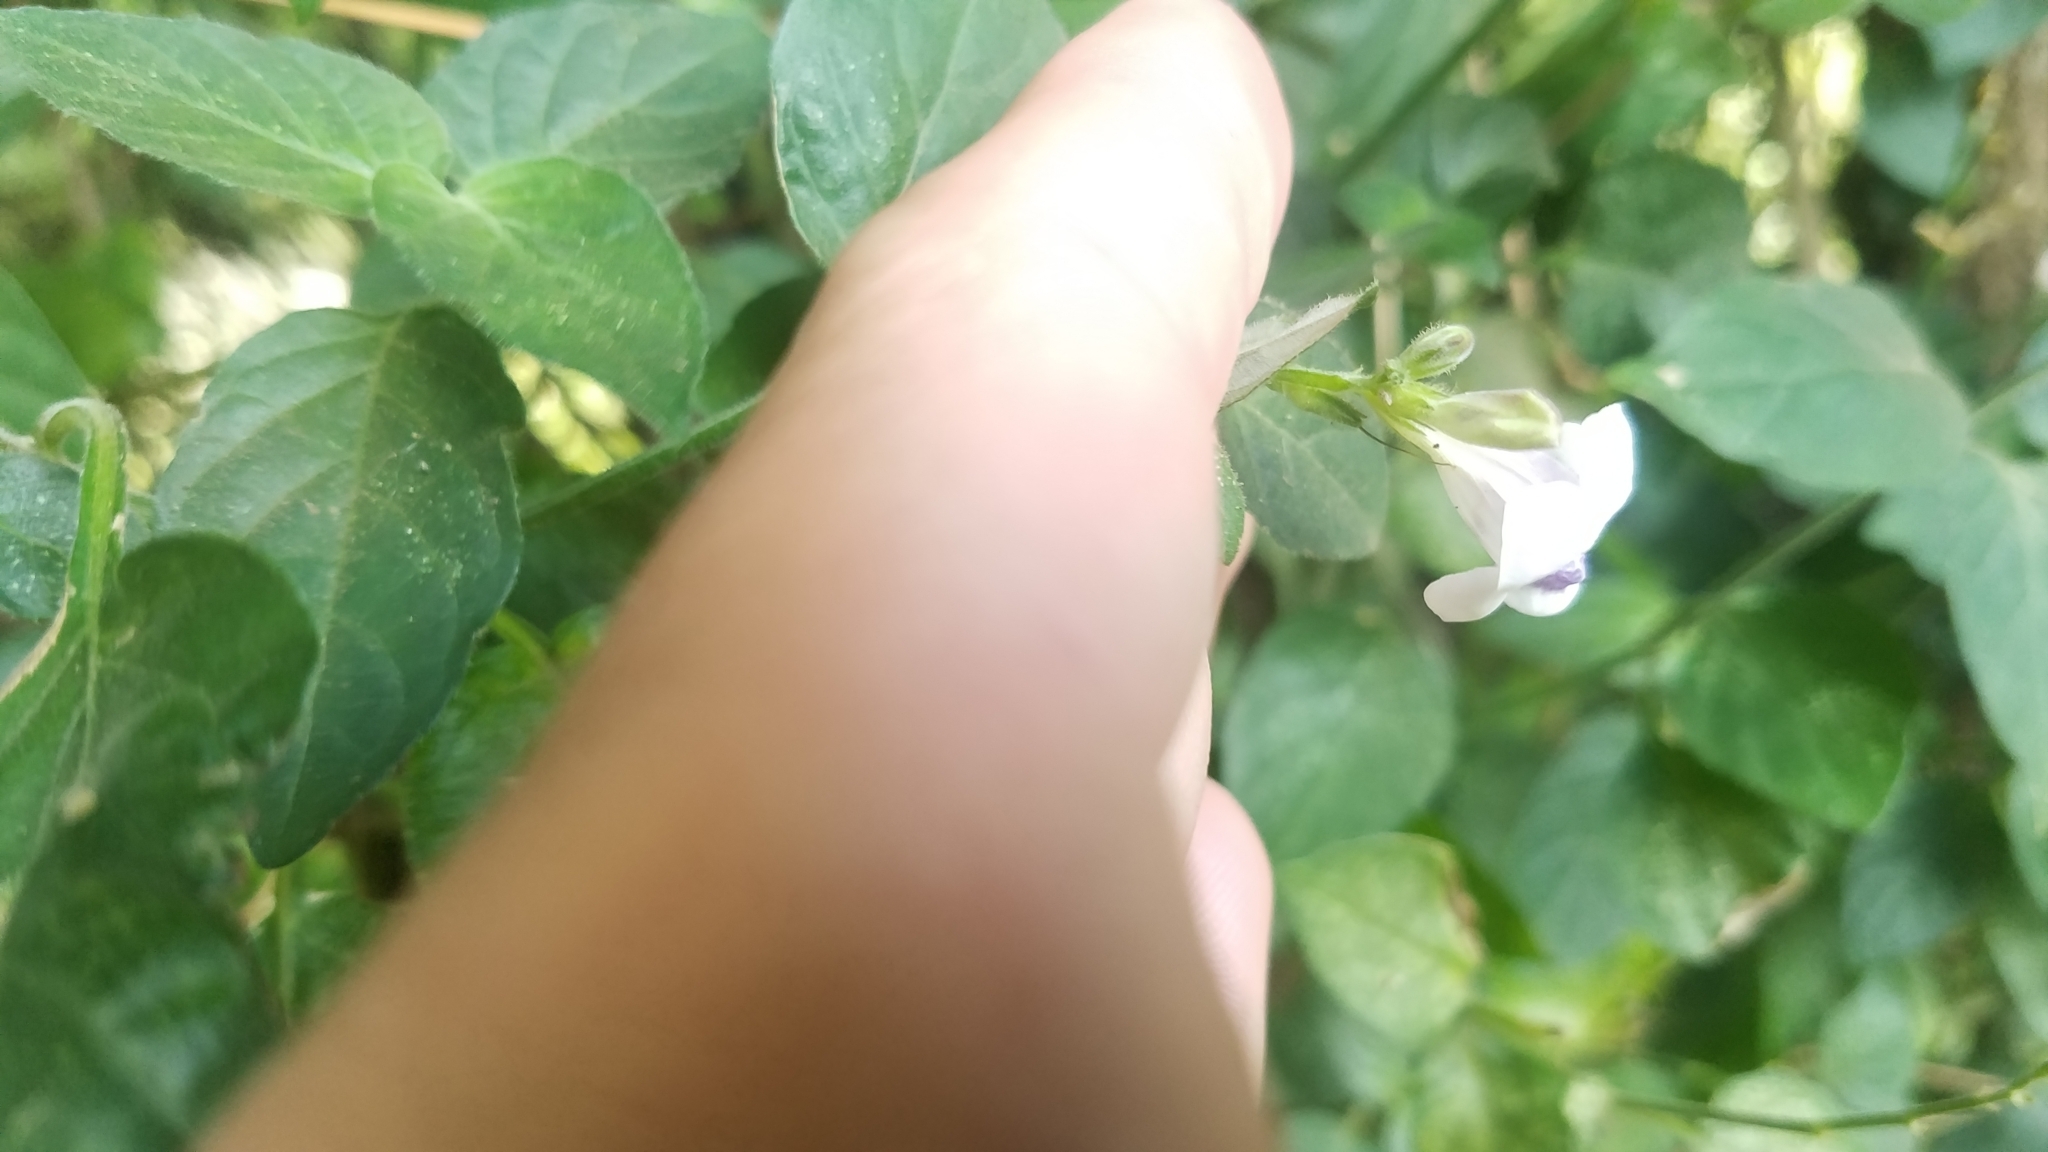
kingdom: Plantae
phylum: Tracheophyta
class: Magnoliopsida
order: Lamiales
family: Acanthaceae
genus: Asystasia
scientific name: Asystasia intrusa
